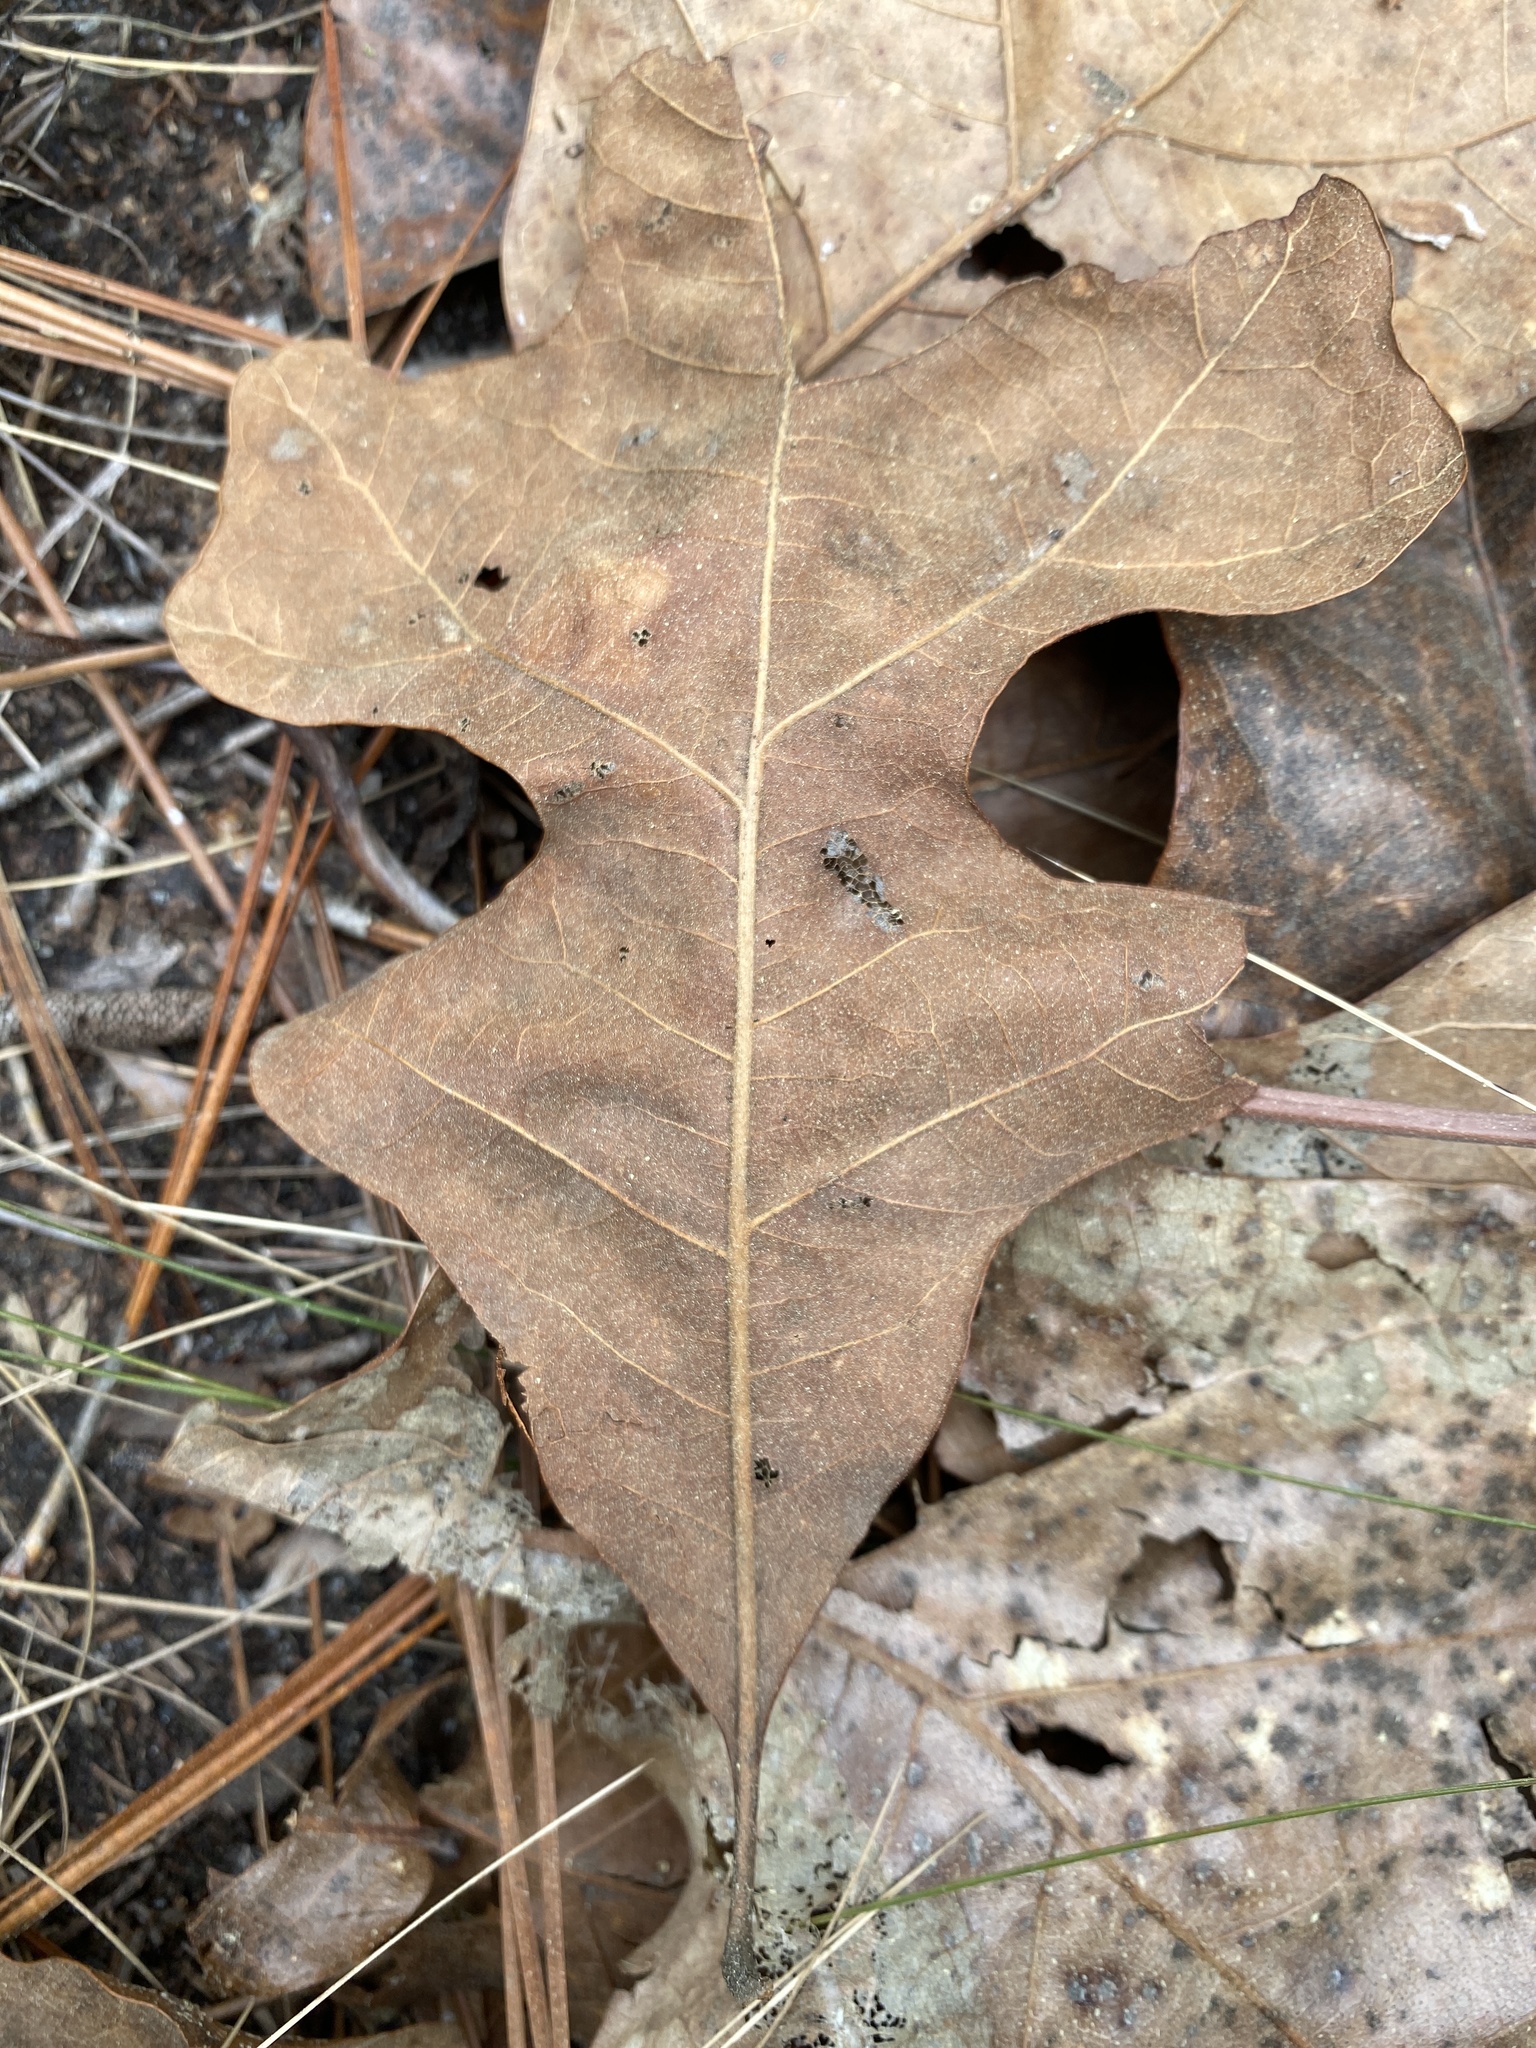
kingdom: Plantae
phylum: Tracheophyta
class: Magnoliopsida
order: Fagales
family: Fagaceae
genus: Quercus
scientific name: Quercus stellata
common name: Post oak
